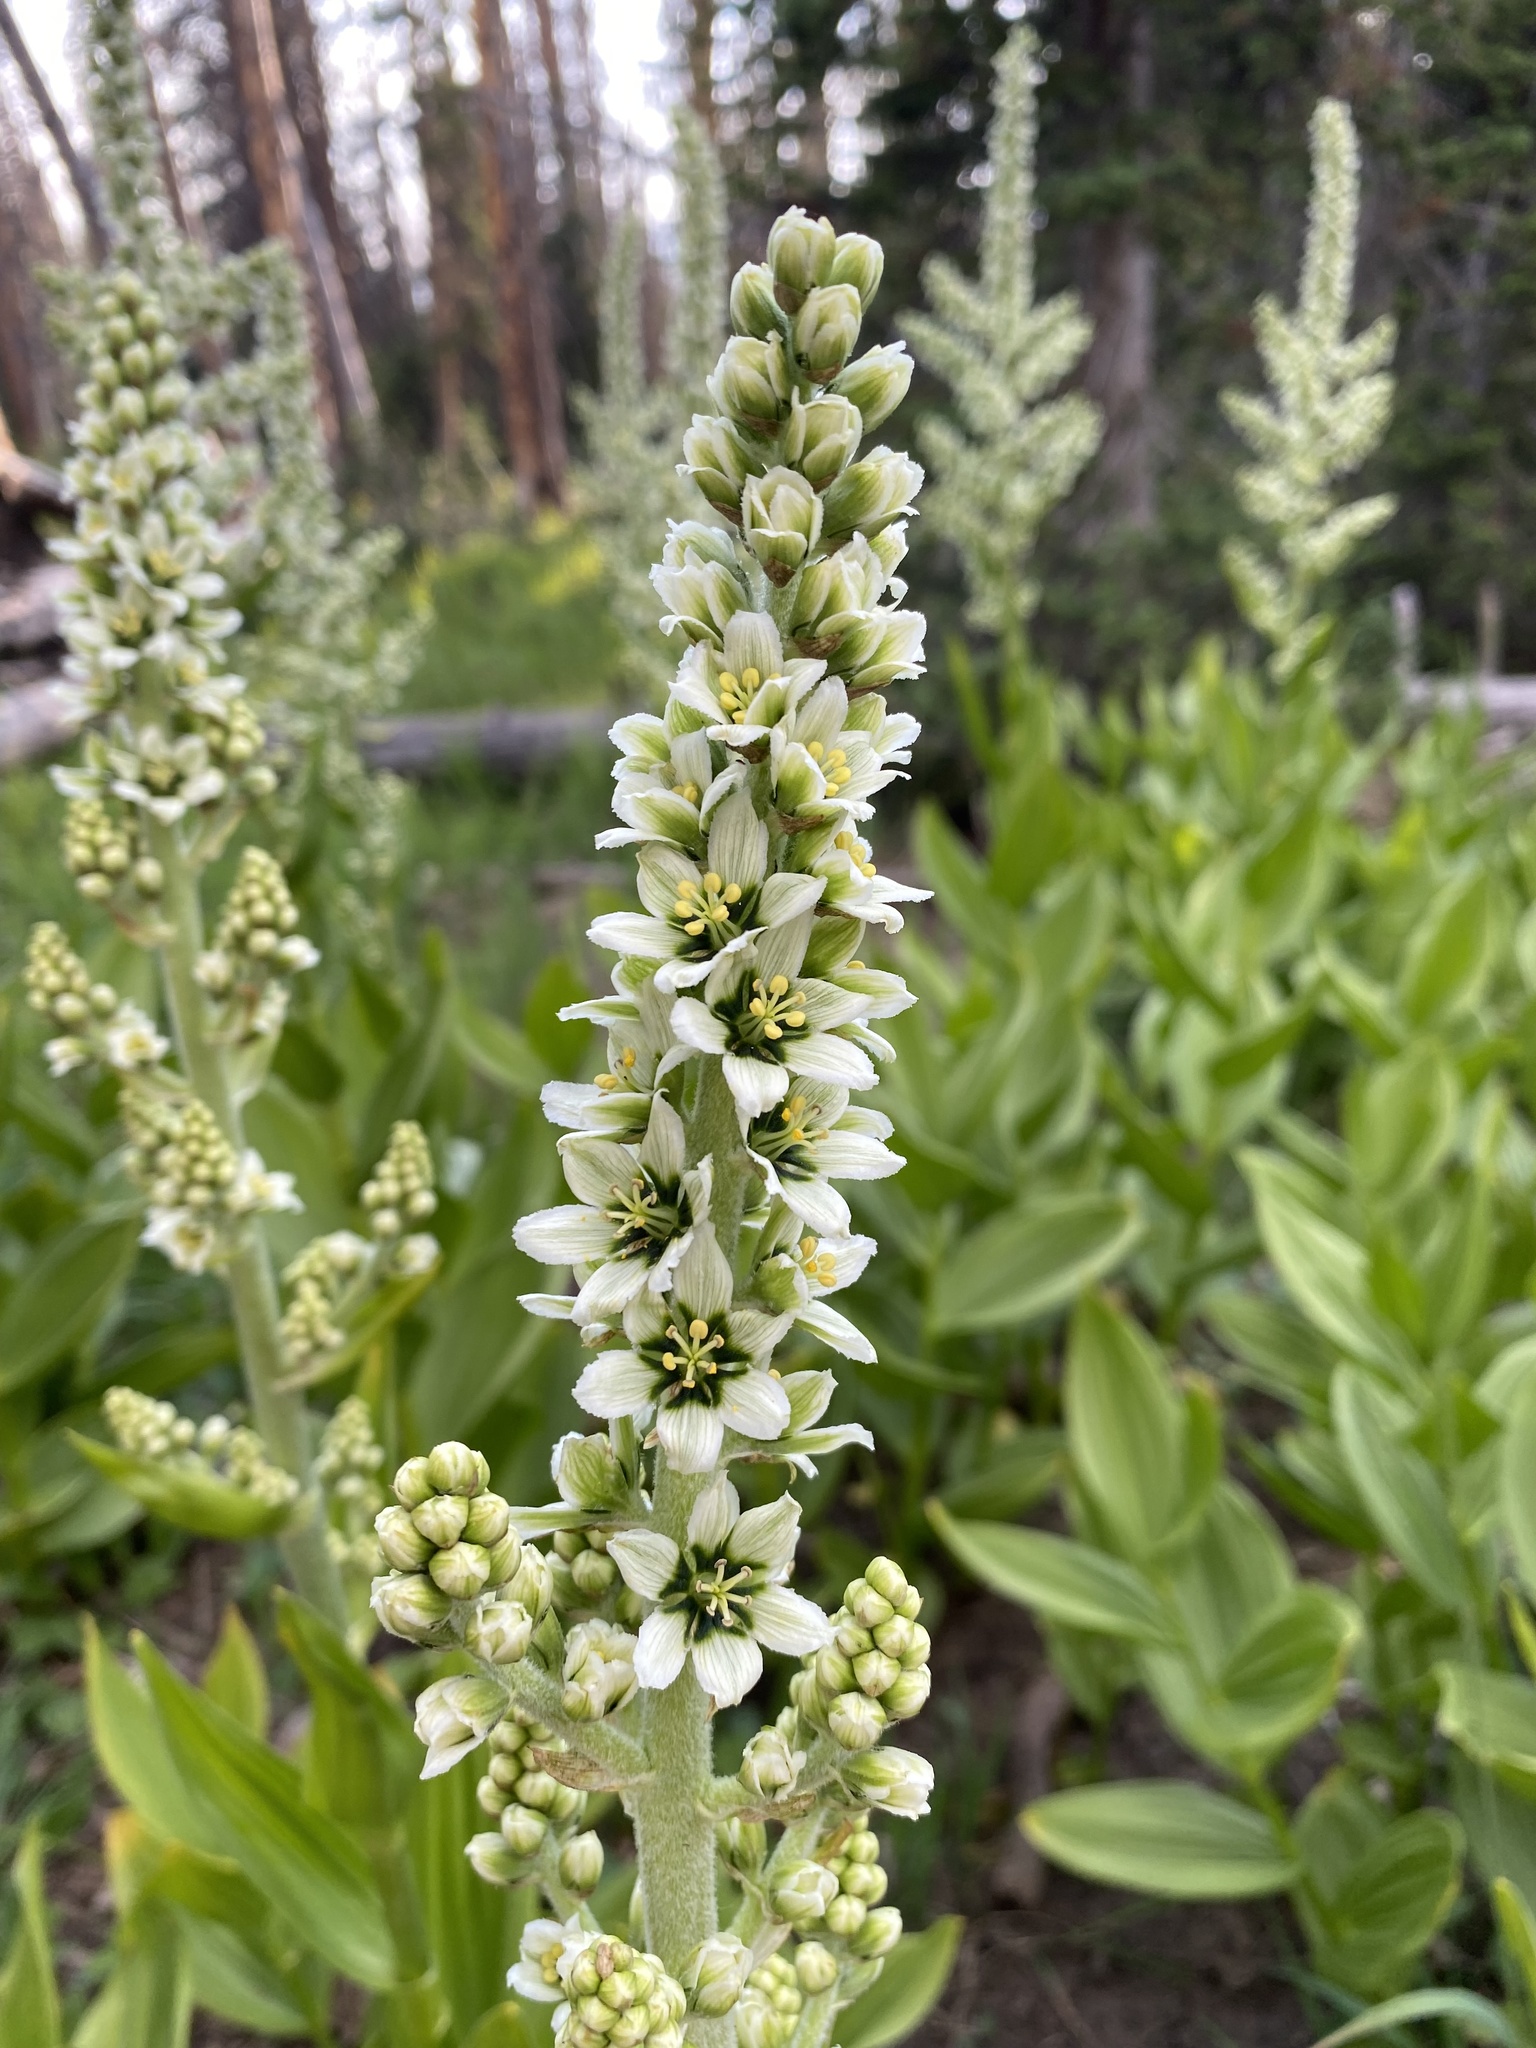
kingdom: Plantae
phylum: Tracheophyta
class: Liliopsida
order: Liliales
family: Melanthiaceae
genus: Veratrum
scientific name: Veratrum californicum
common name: California veratrum
